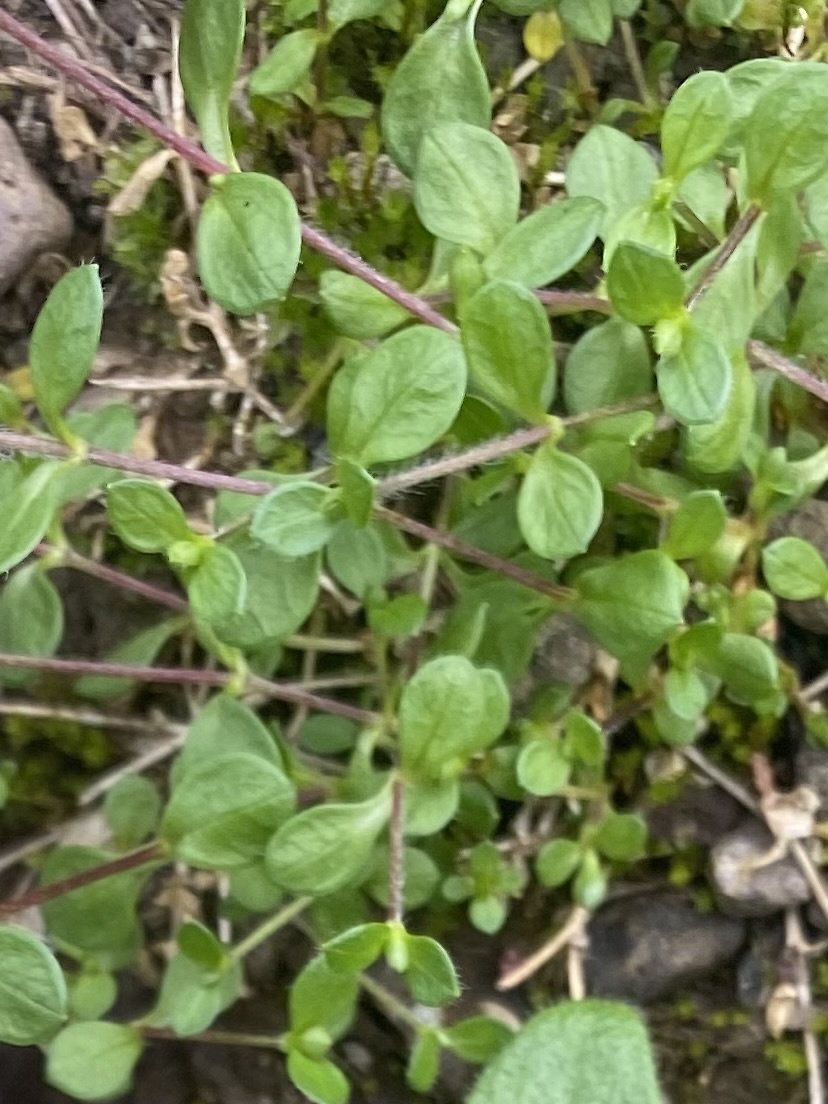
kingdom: Plantae
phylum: Tracheophyta
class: Magnoliopsida
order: Caryophyllales
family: Caryophyllaceae
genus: Cerastium
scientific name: Cerastium regelii
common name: Regel's chickweed
